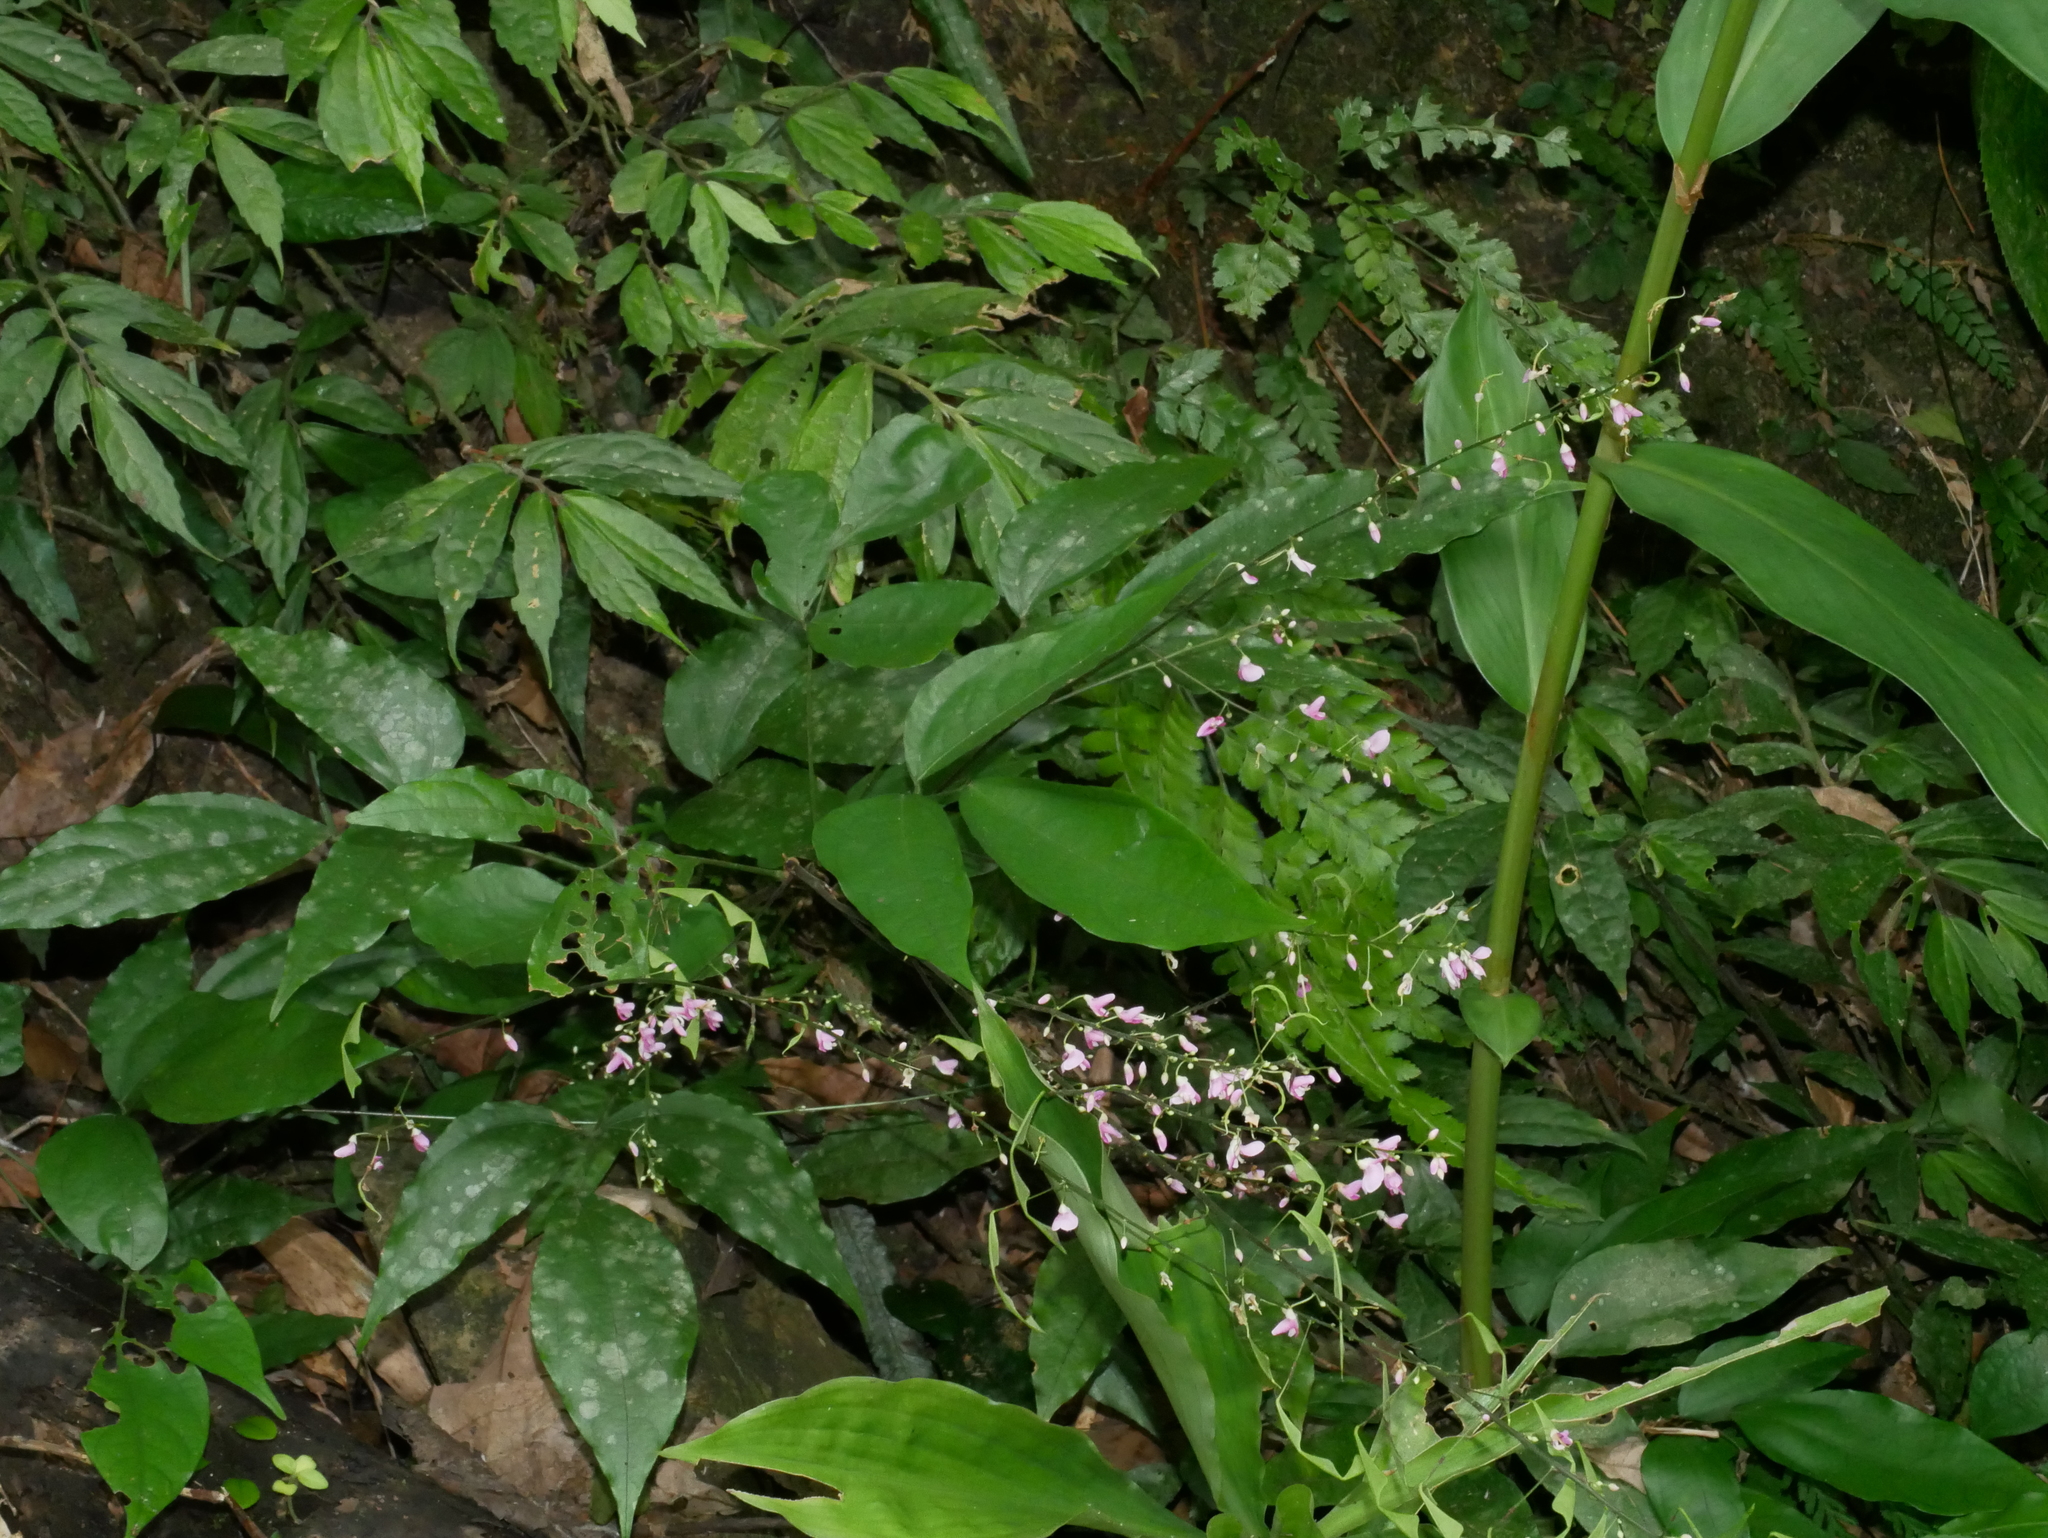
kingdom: Plantae
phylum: Tracheophyta
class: Magnoliopsida
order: Fabales
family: Fabaceae
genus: Hylodesmum
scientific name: Hylodesmum leptopus
